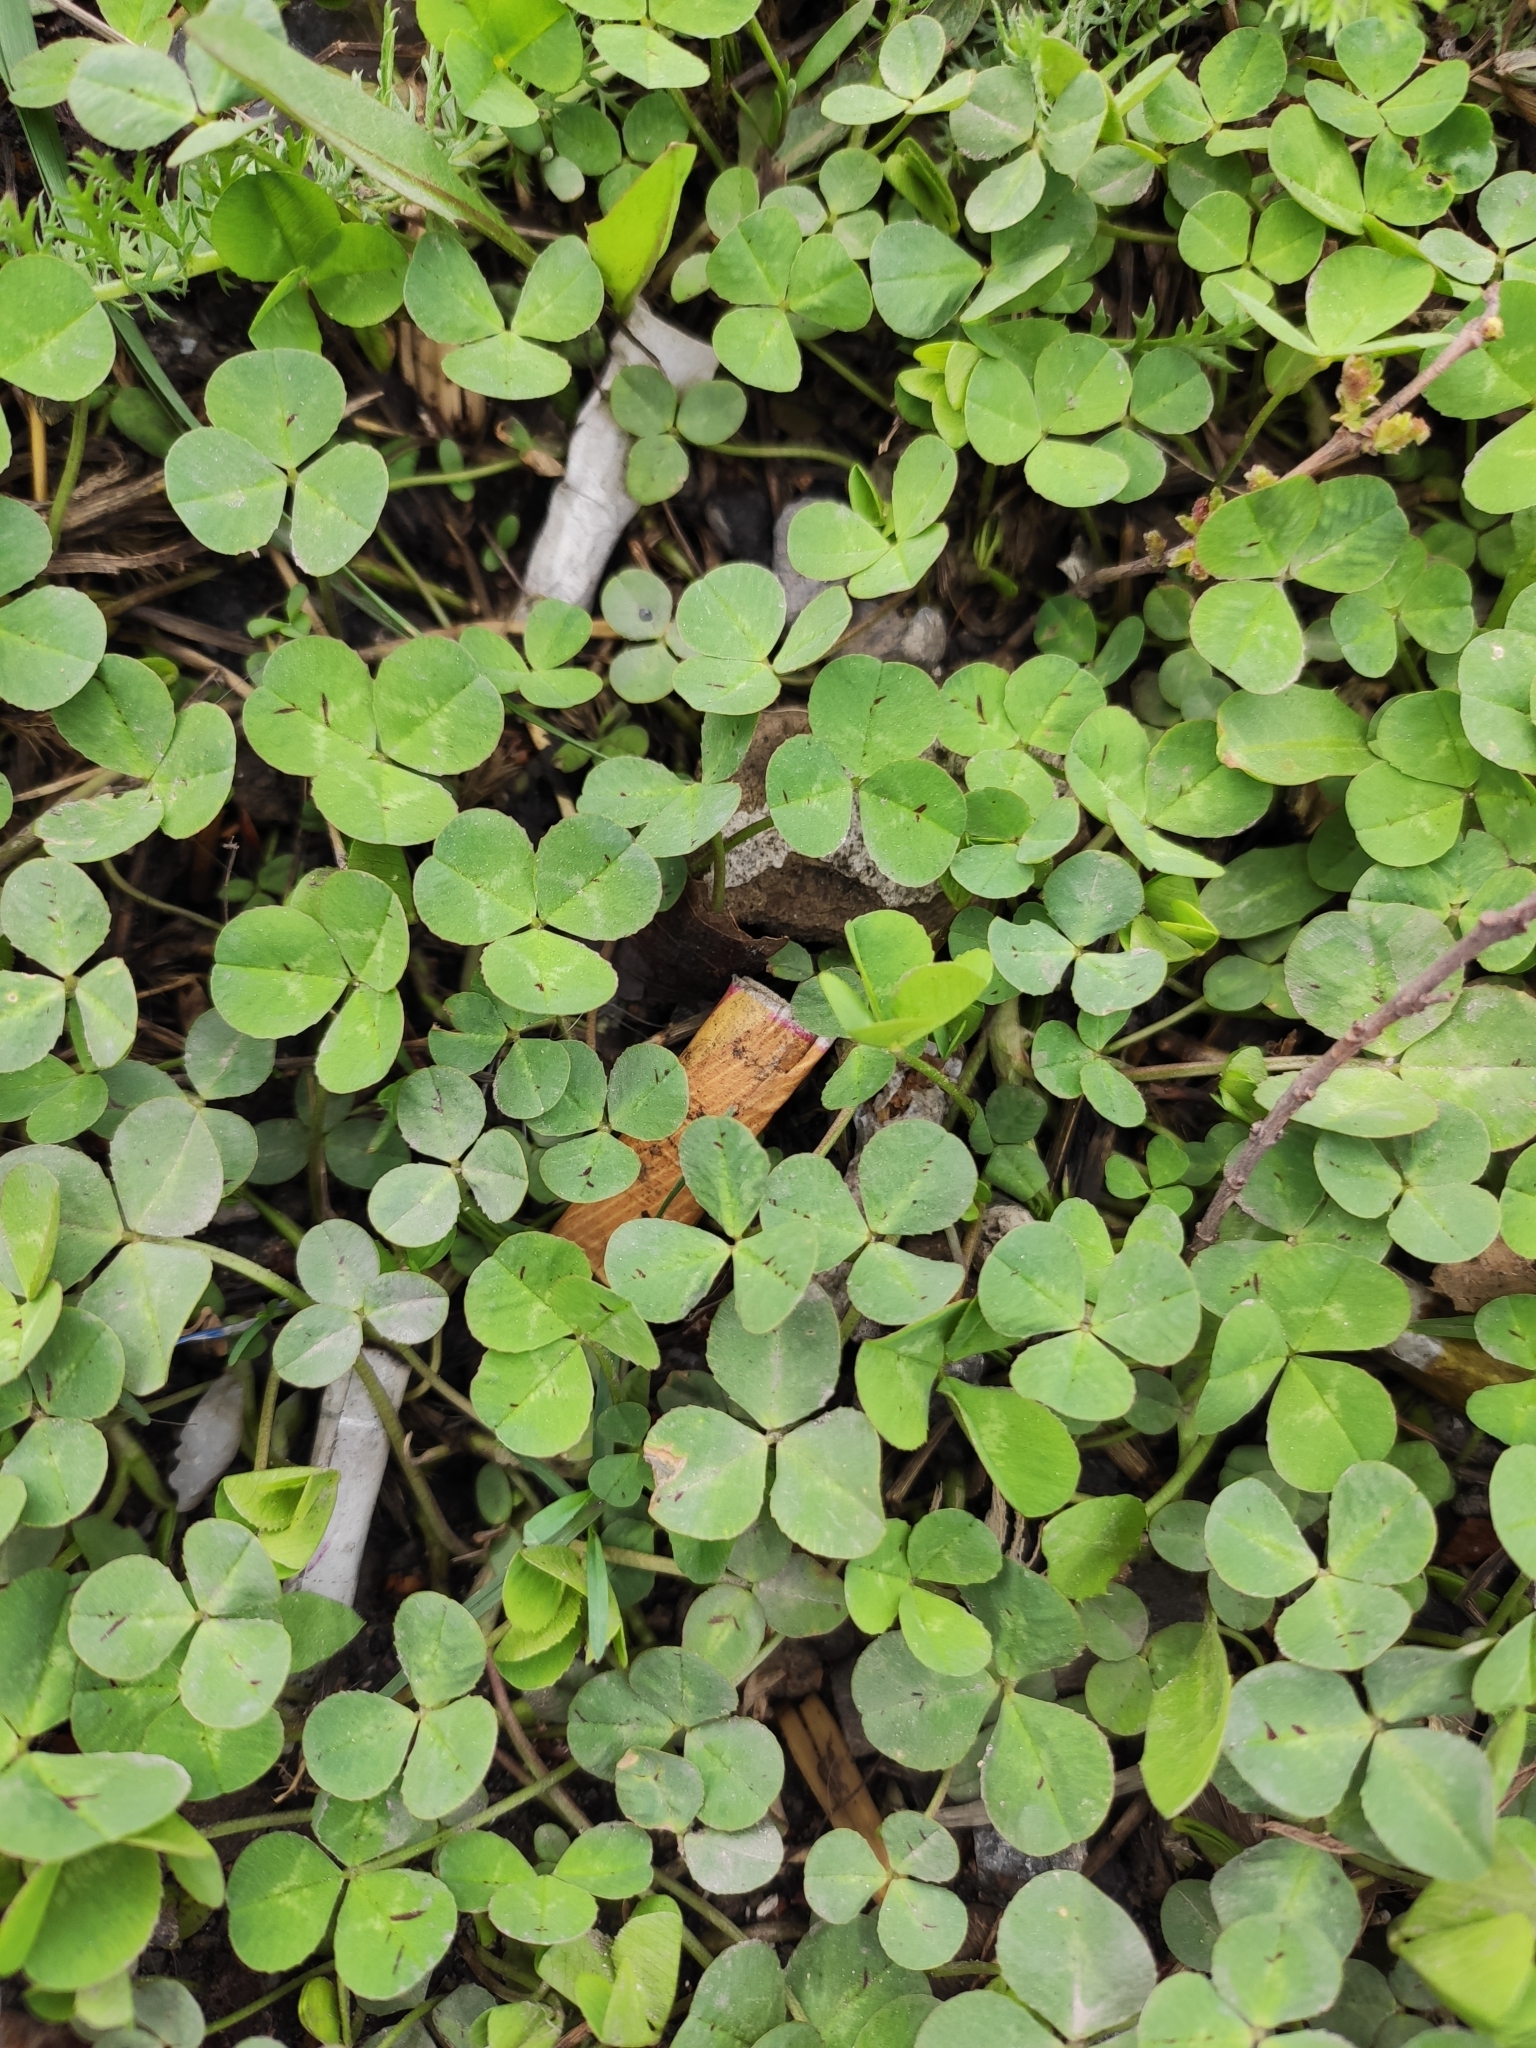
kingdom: Plantae
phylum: Tracheophyta
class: Magnoliopsida
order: Fabales
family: Fabaceae
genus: Trifolium
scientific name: Trifolium repens
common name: White clover
